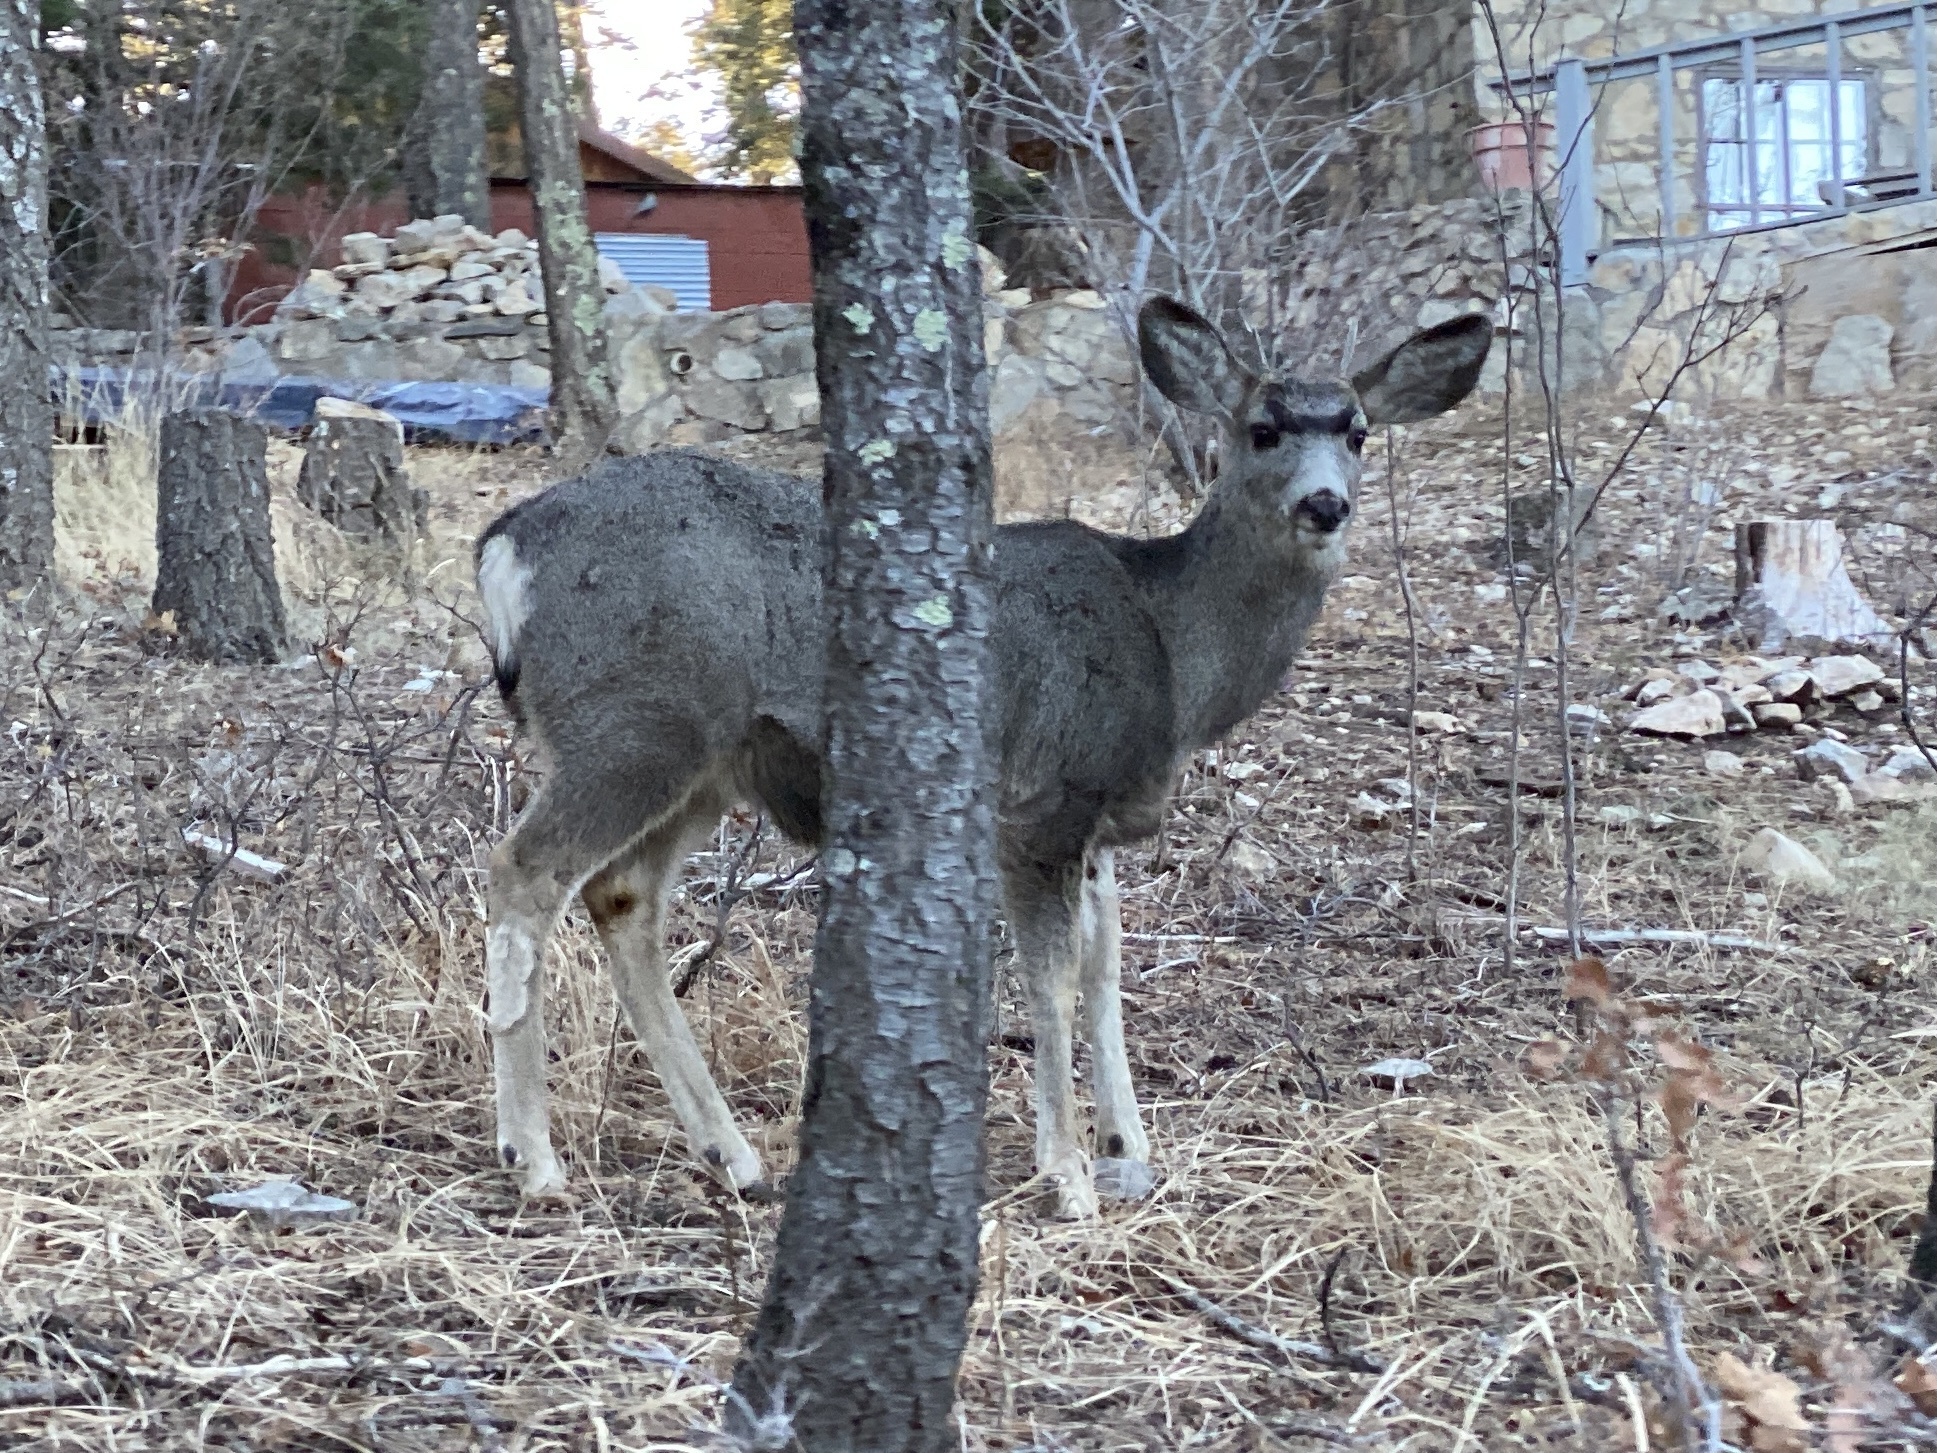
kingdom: Animalia
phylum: Chordata
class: Mammalia
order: Artiodactyla
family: Cervidae
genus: Odocoileus
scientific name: Odocoileus hemionus
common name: Mule deer
